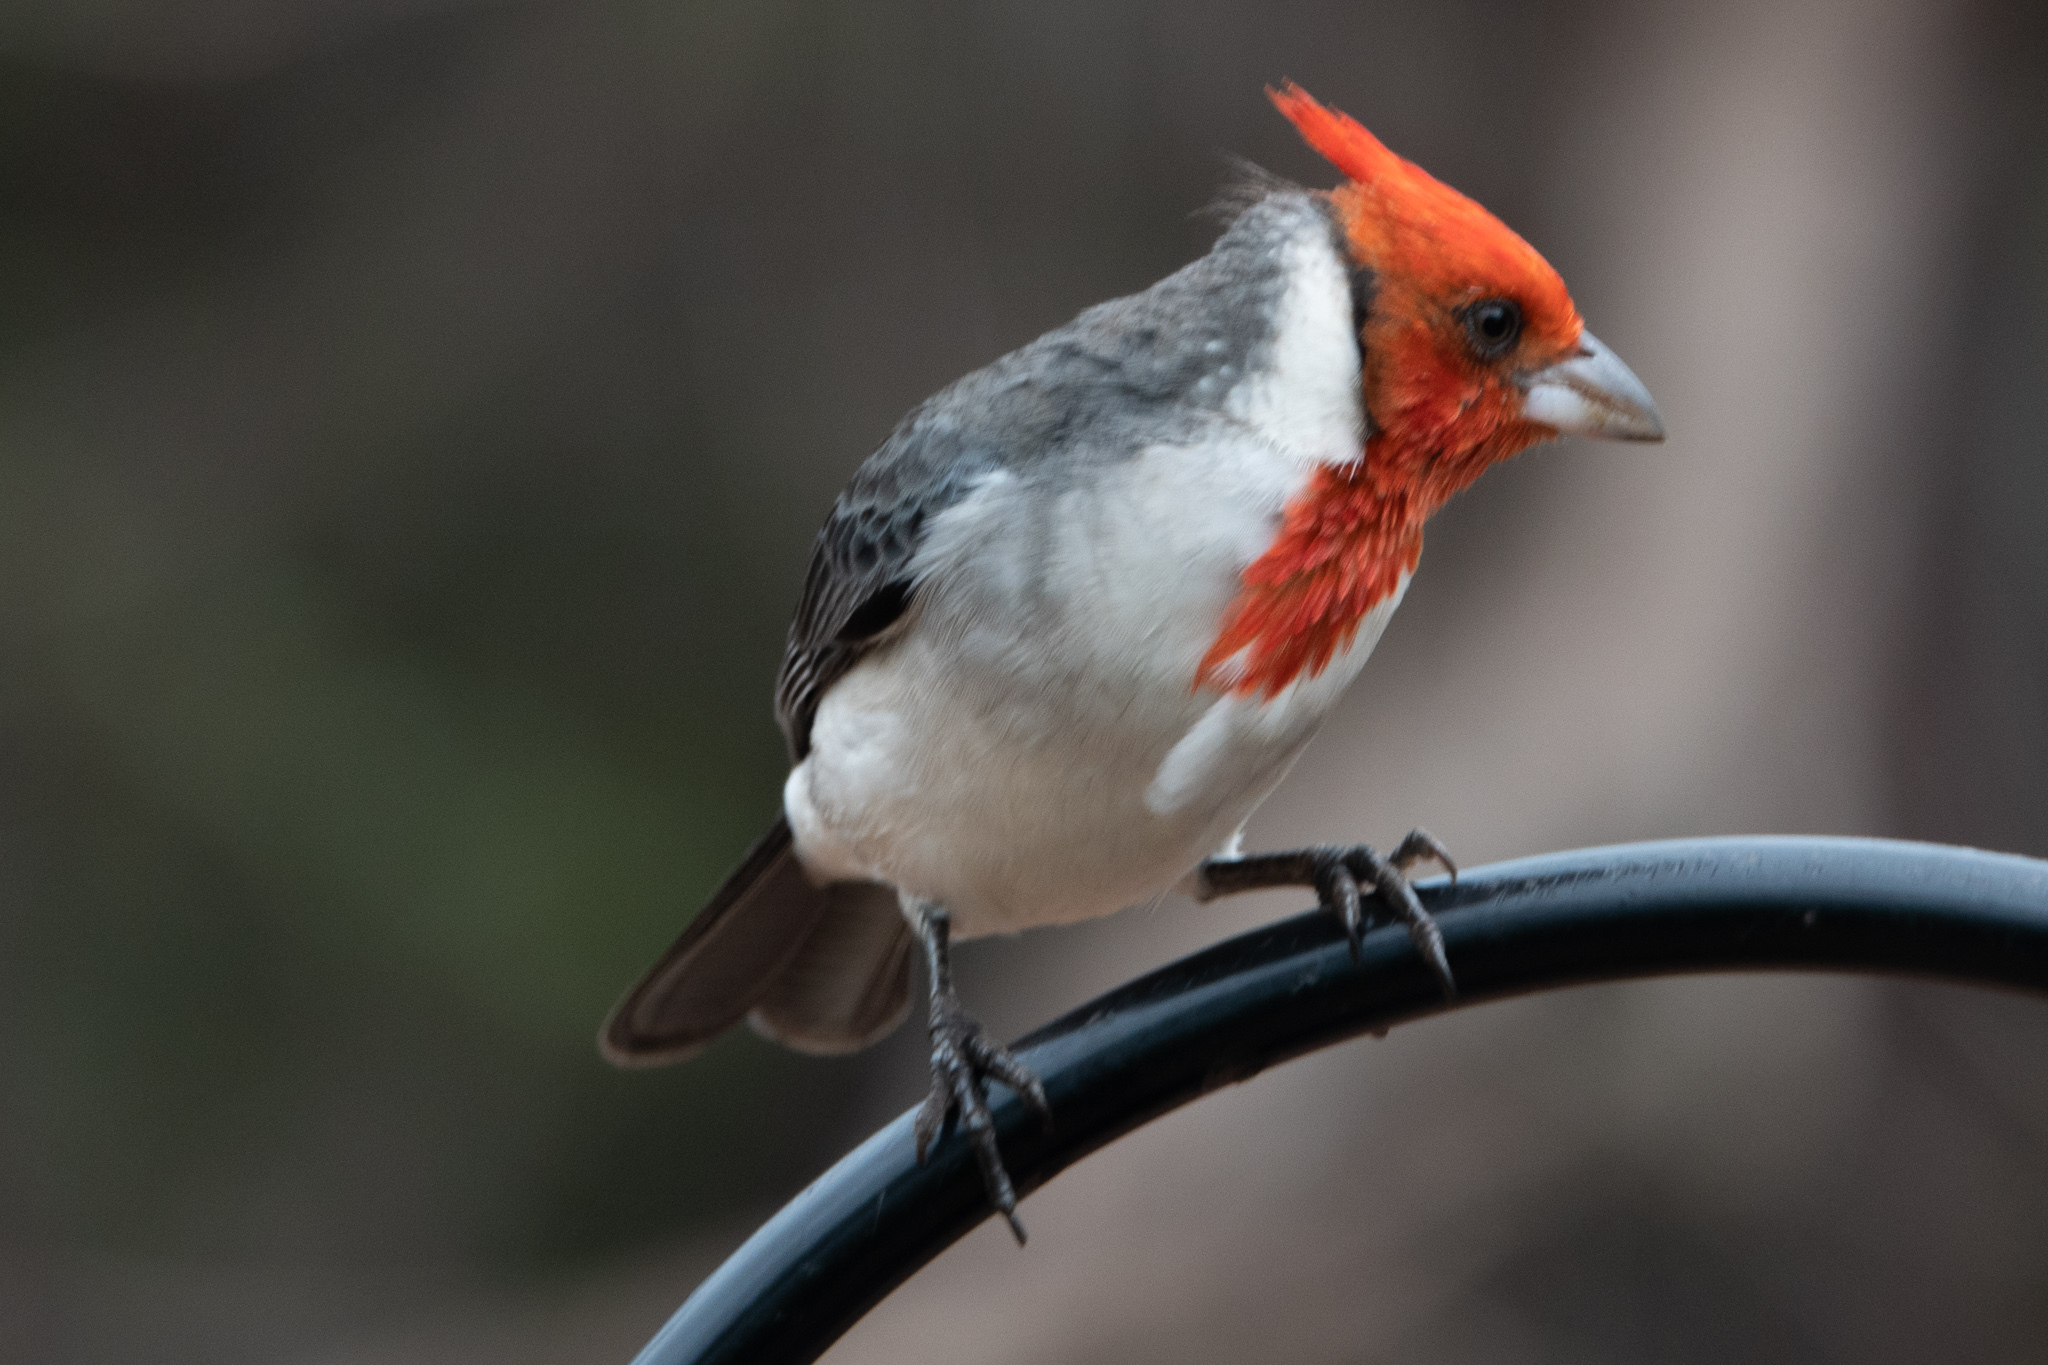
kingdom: Animalia
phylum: Chordata
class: Aves
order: Passeriformes
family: Thraupidae
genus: Paroaria
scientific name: Paroaria coronata
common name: Red-crested cardinal
